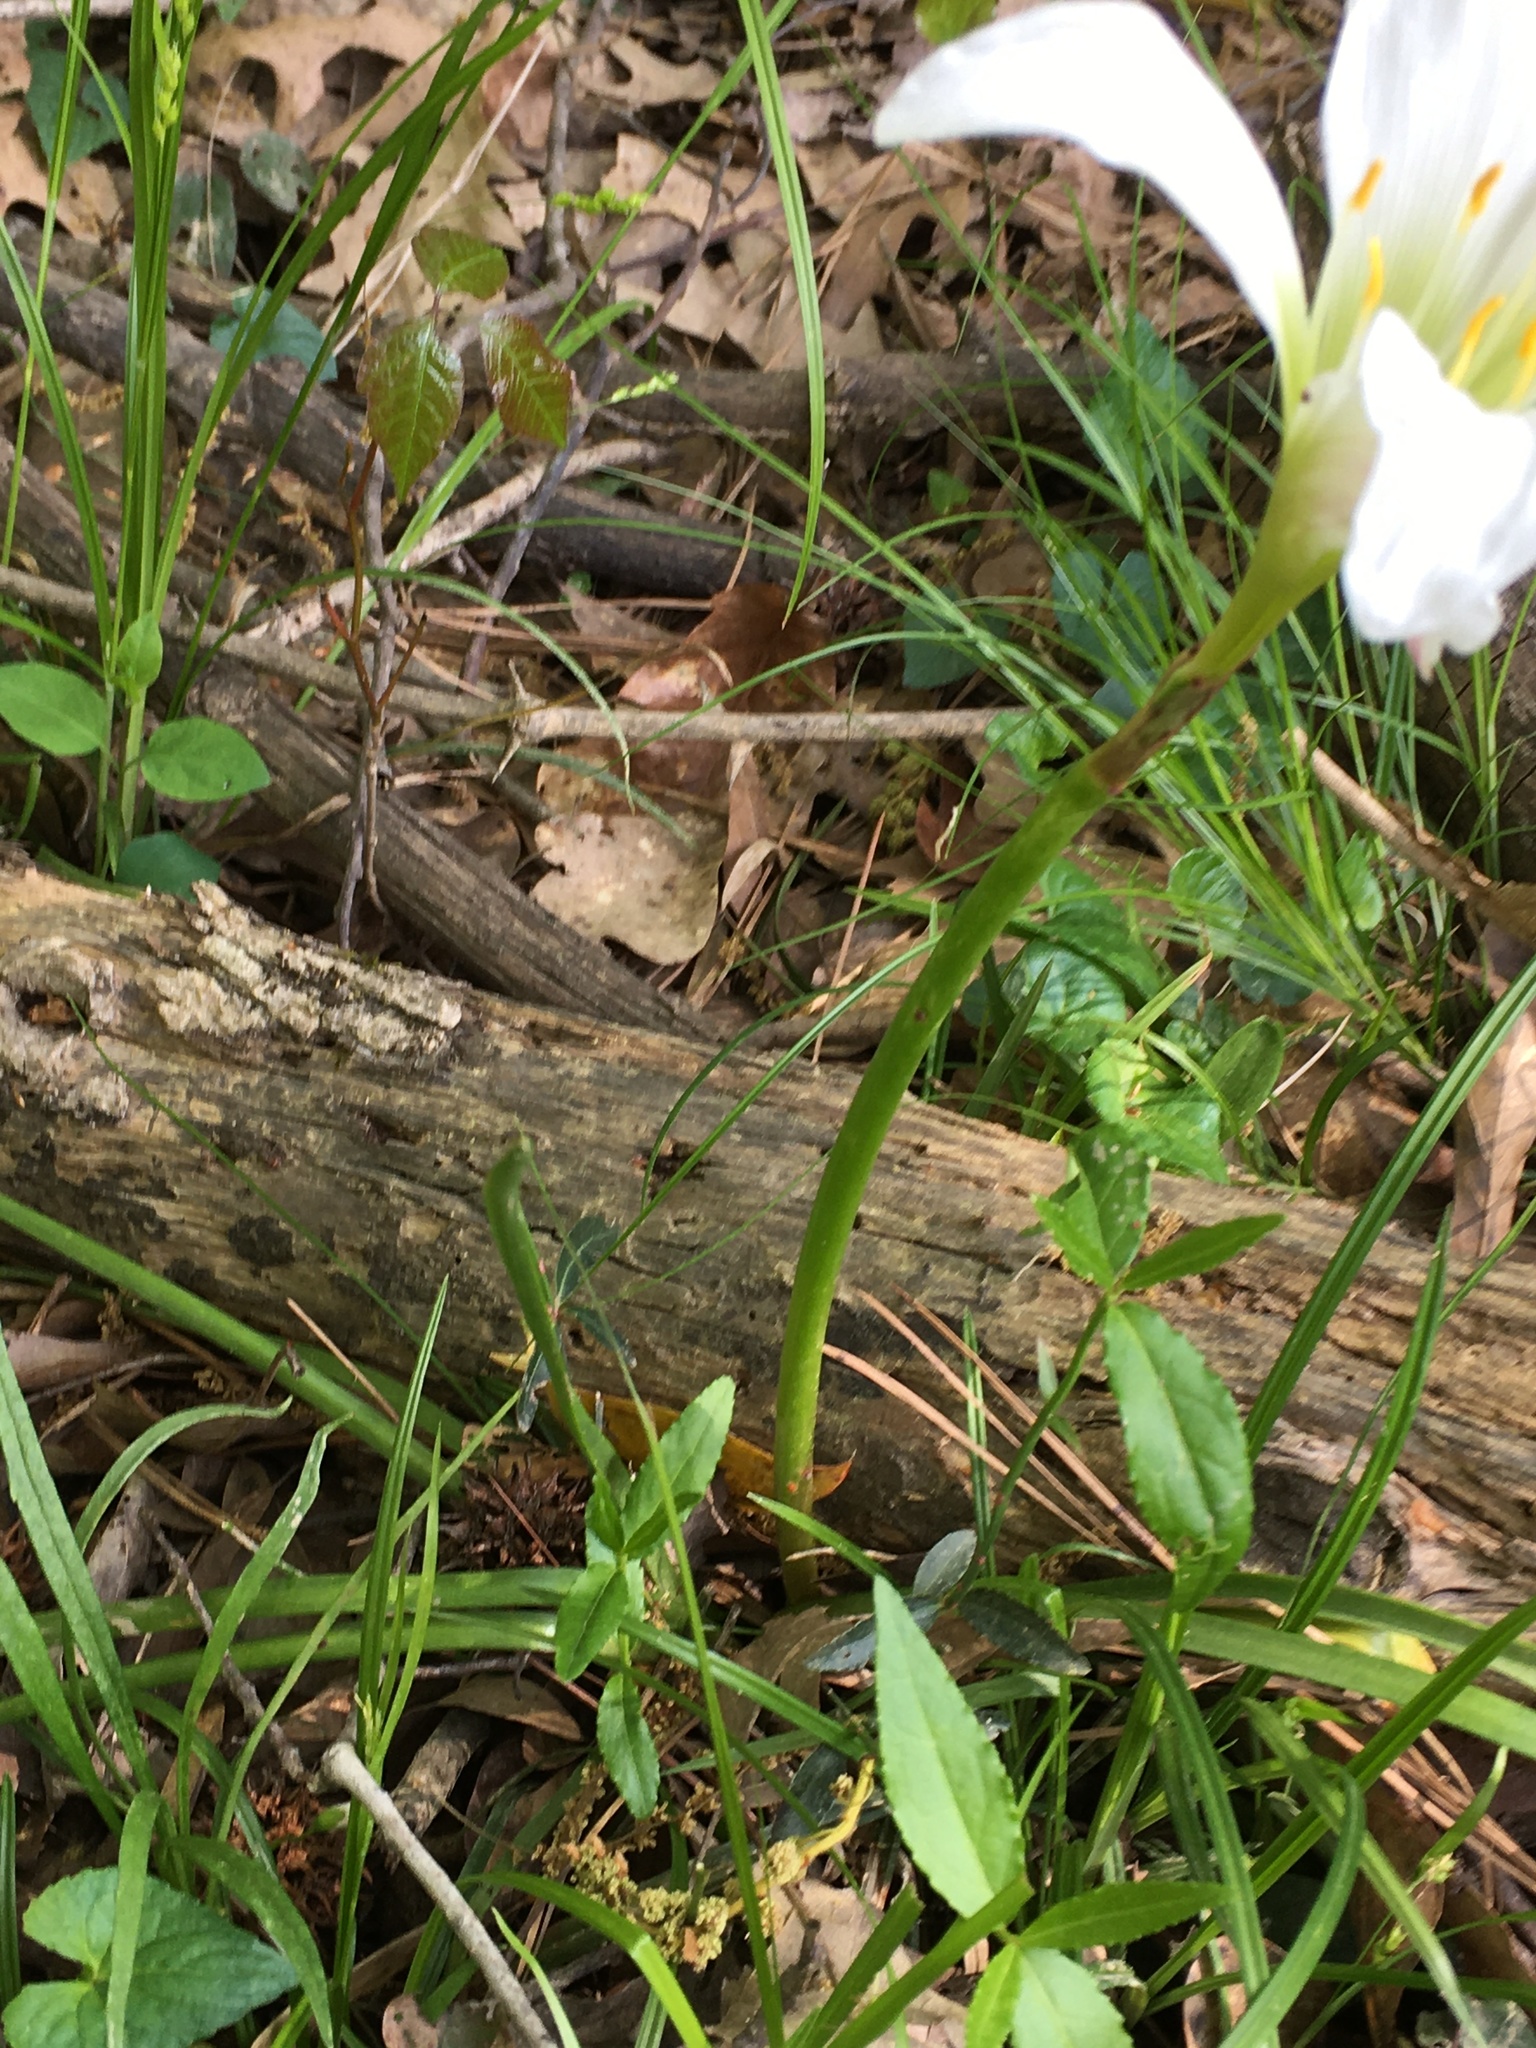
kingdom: Plantae
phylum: Tracheophyta
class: Liliopsida
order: Asparagales
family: Amaryllidaceae
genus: Zephyranthes
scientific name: Zephyranthes atamasco
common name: Atamasco lily
